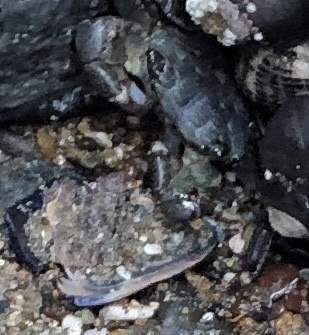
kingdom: Animalia
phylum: Arthropoda
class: Malacostraca
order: Decapoda
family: Grapsidae
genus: Pachygrapsus
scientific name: Pachygrapsus crassipes
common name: Striped shore crab
